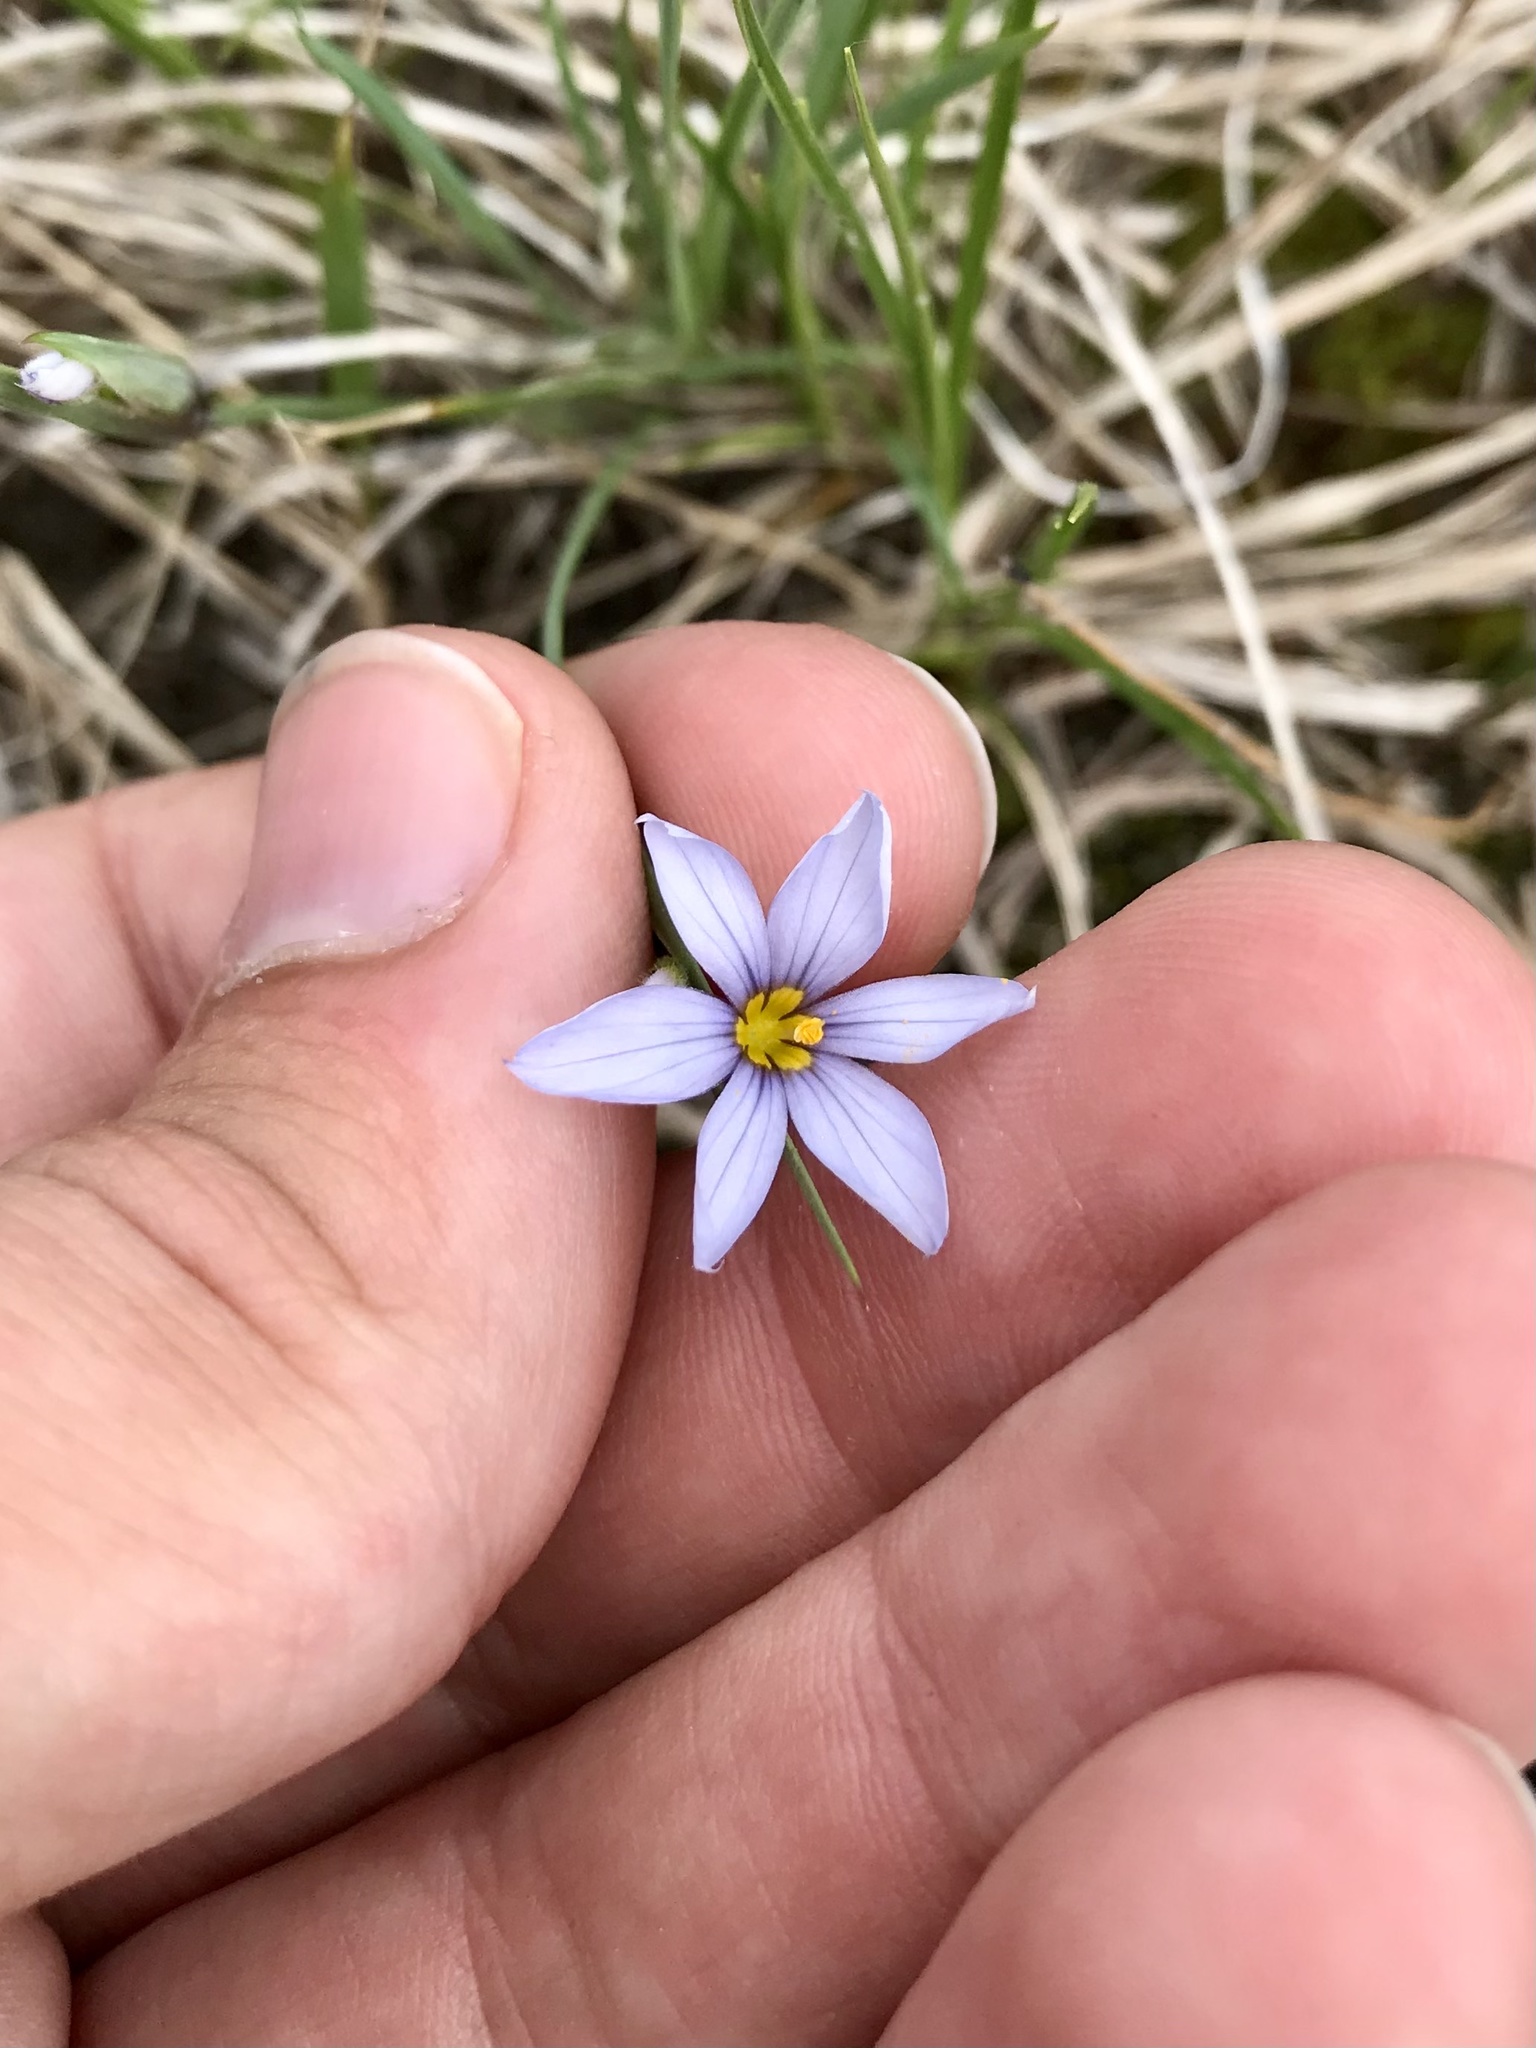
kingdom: Plantae
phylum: Tracheophyta
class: Liliopsida
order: Asparagales
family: Iridaceae
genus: Sisyrinchium
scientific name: Sisyrinchium campestre
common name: Prairie blue-eyed-grass
